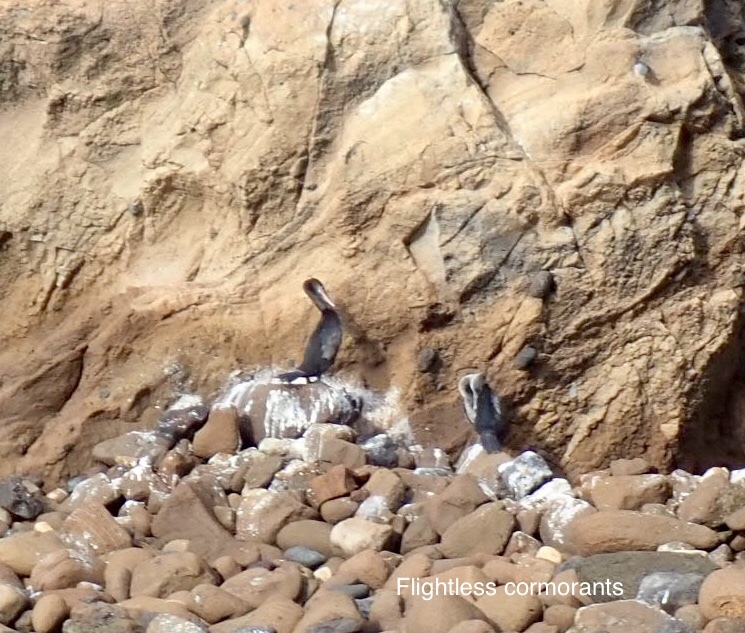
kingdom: Animalia
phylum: Chordata
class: Aves
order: Suliformes
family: Phalacrocoracidae
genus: Phalacrocorax
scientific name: Phalacrocorax harrisi
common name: Flightless cormorant
